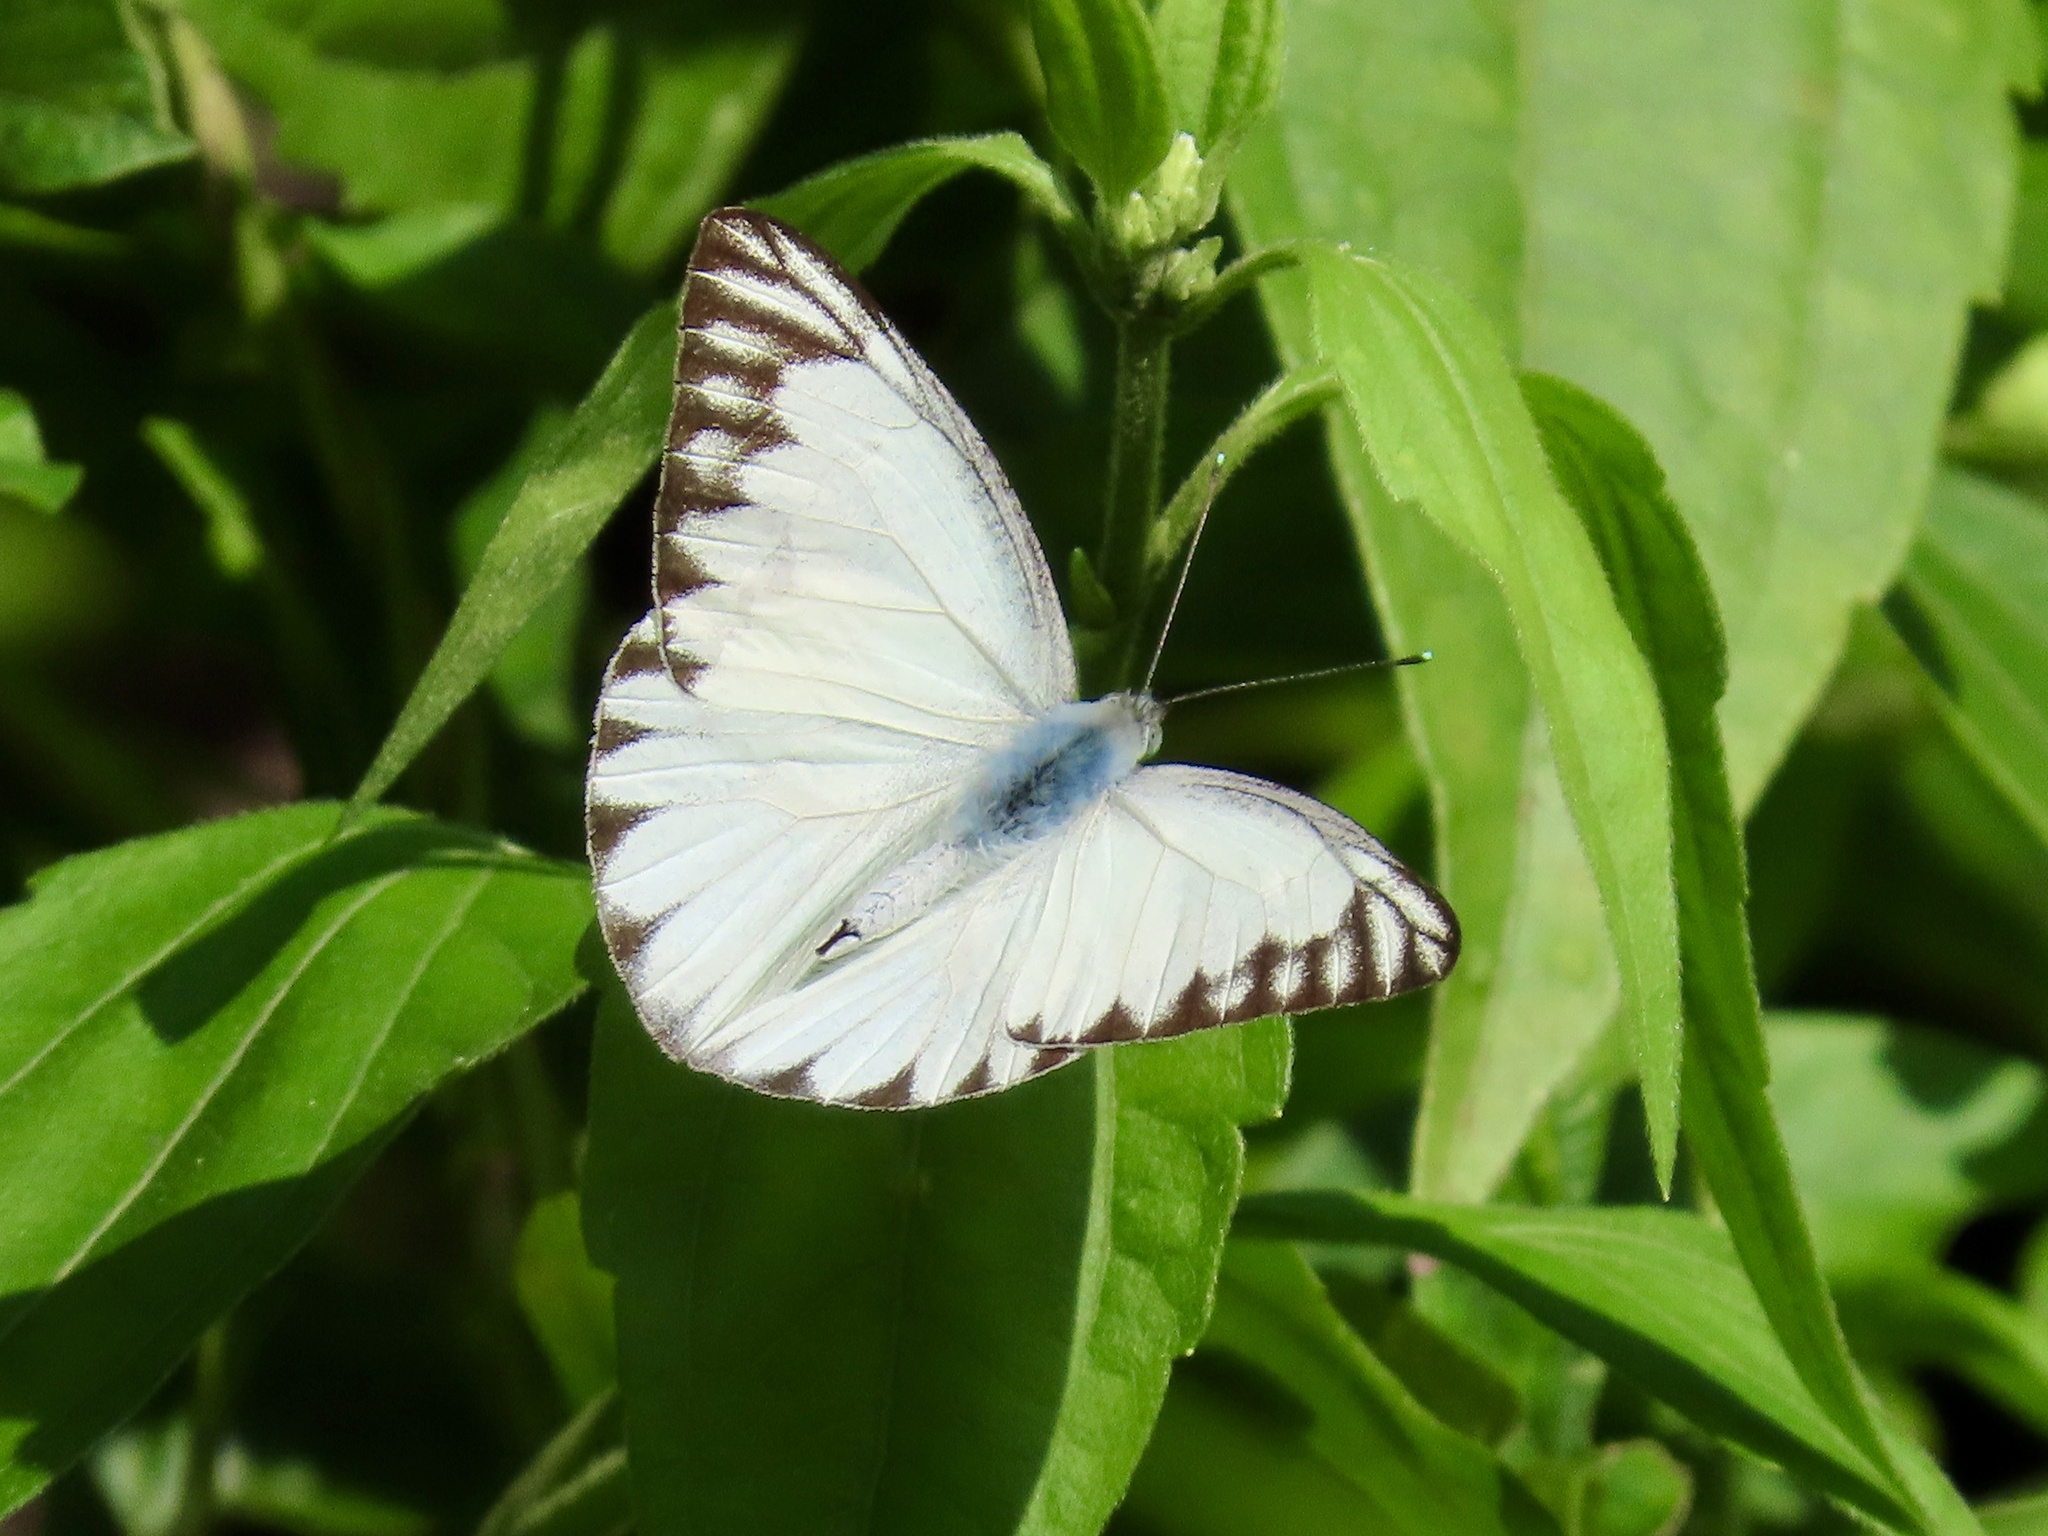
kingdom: Animalia
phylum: Arthropoda
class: Insecta
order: Lepidoptera
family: Pieridae
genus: Appias
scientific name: Appias libythea
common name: Striped albatross
